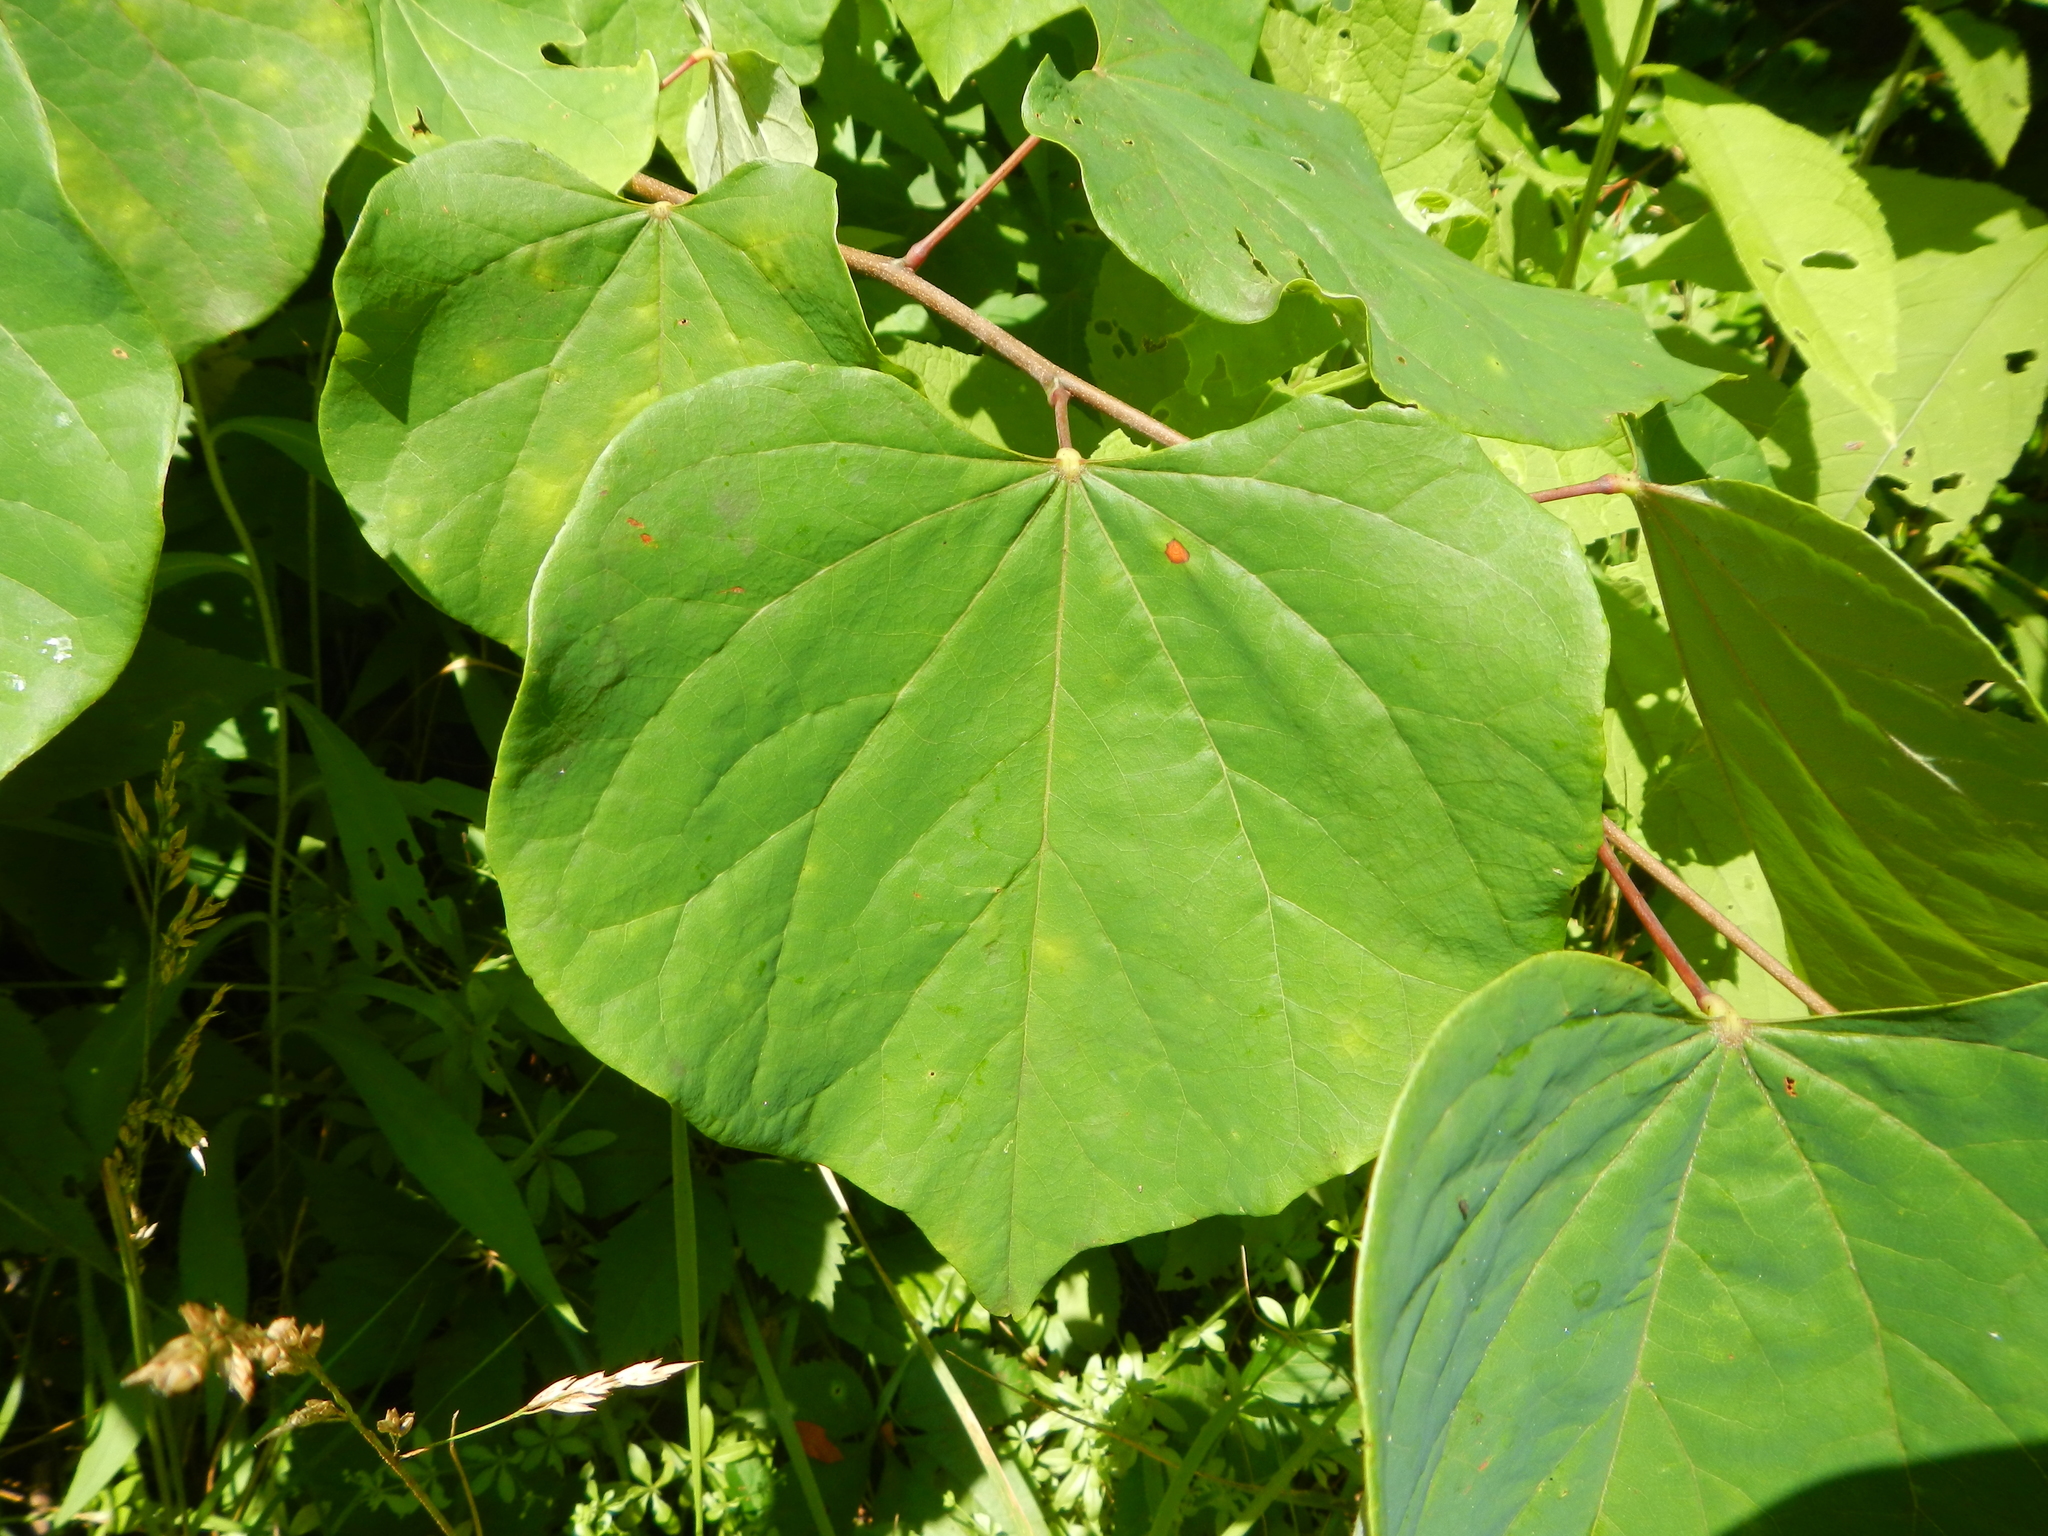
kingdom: Plantae
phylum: Tracheophyta
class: Magnoliopsida
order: Fabales
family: Fabaceae
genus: Cercis
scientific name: Cercis canadensis
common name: Eastern redbud
